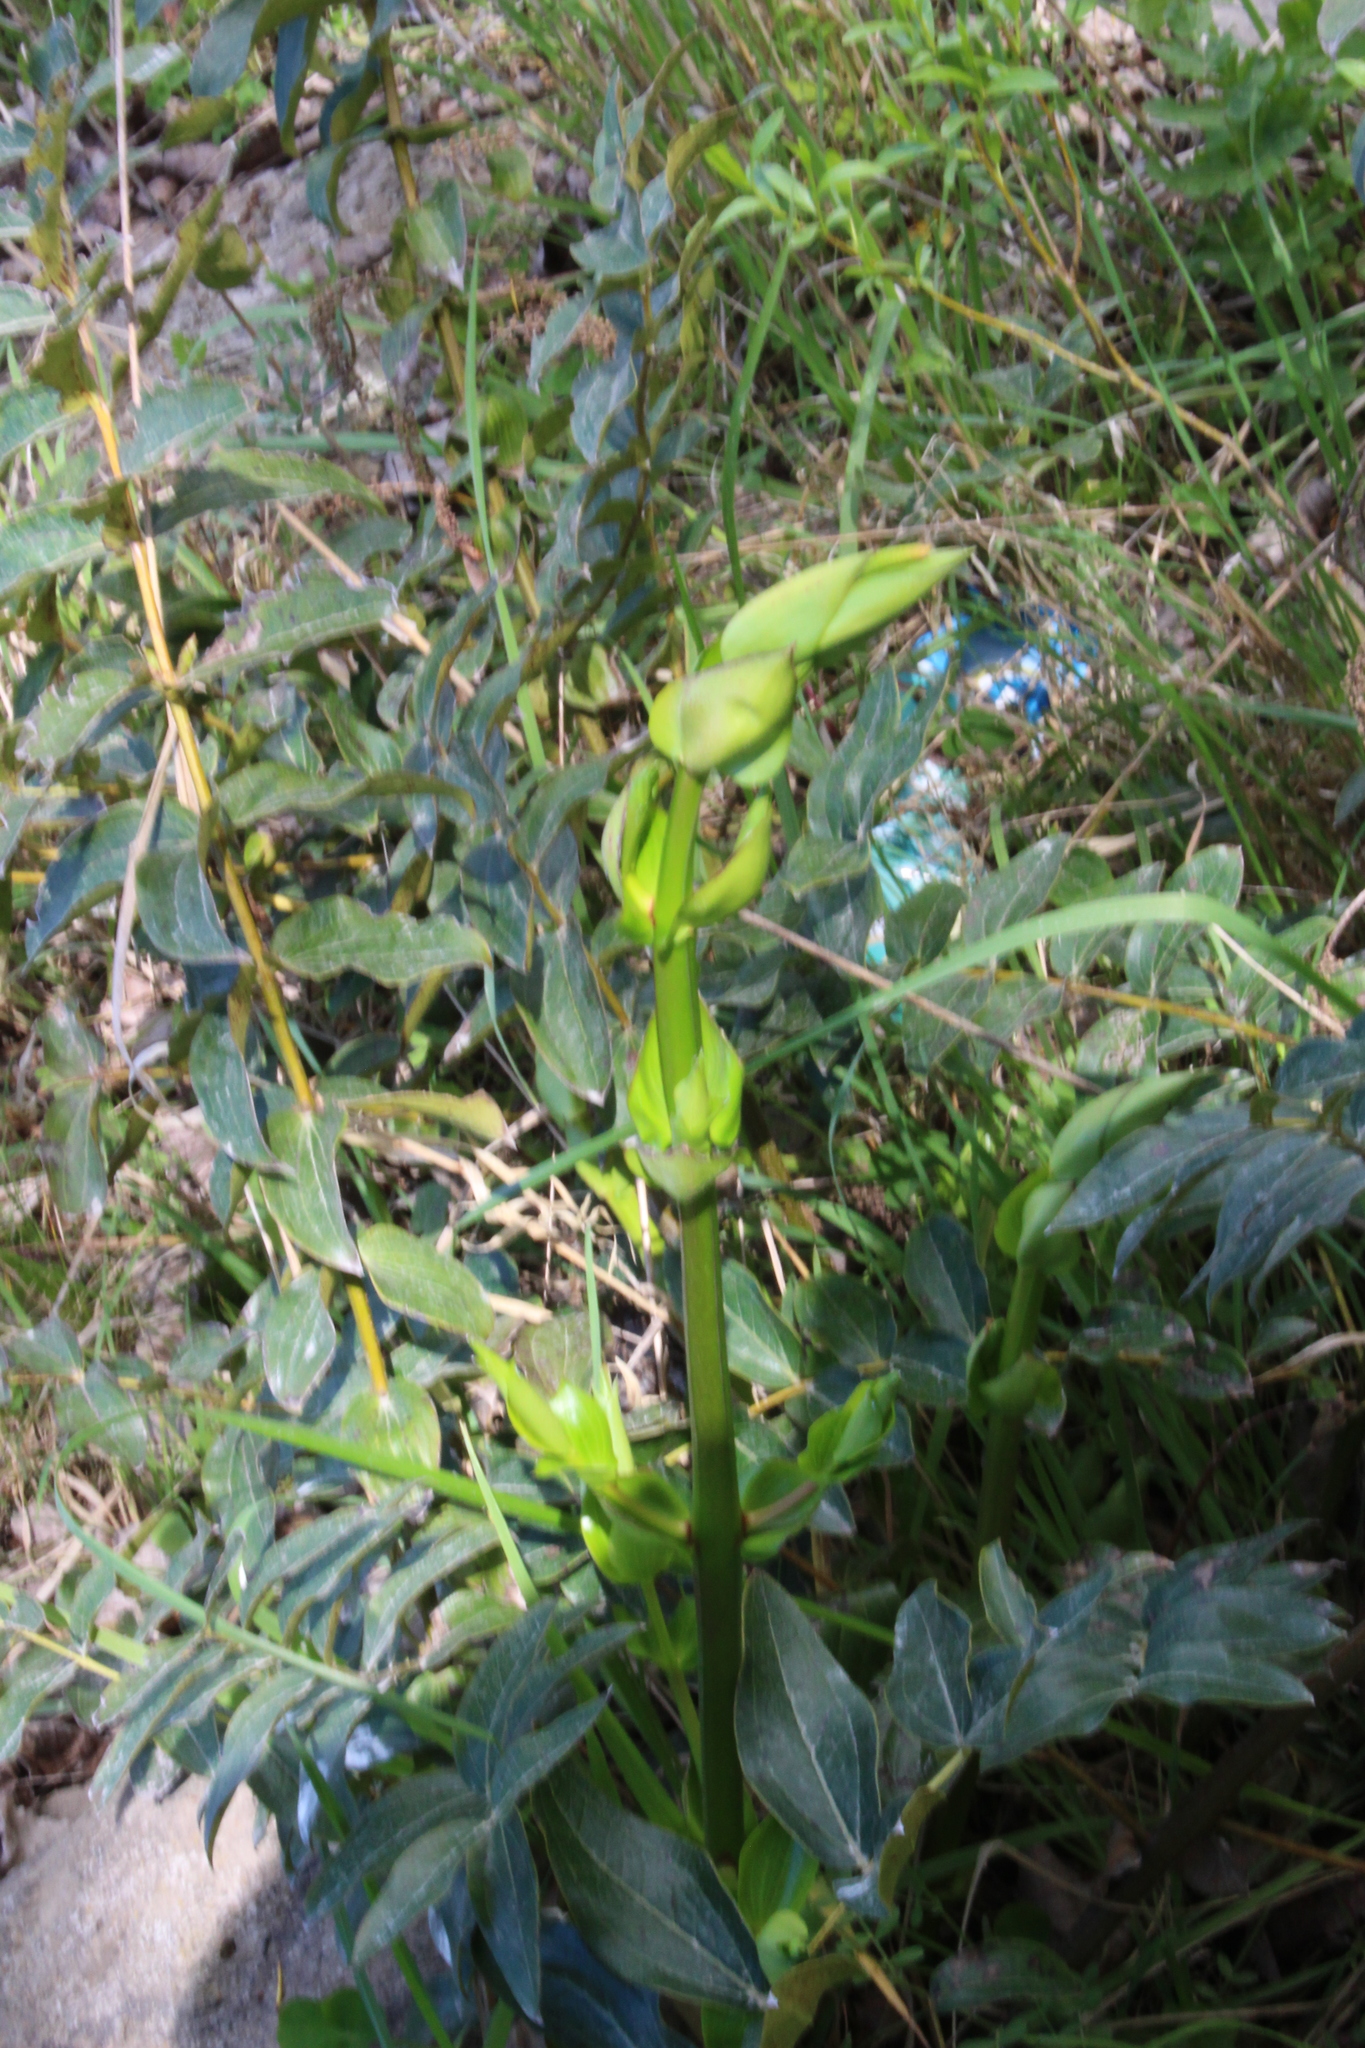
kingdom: Plantae
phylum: Tracheophyta
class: Magnoliopsida
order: Cucurbitales
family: Coriariaceae
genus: Coriaria
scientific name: Coriaria arborea
